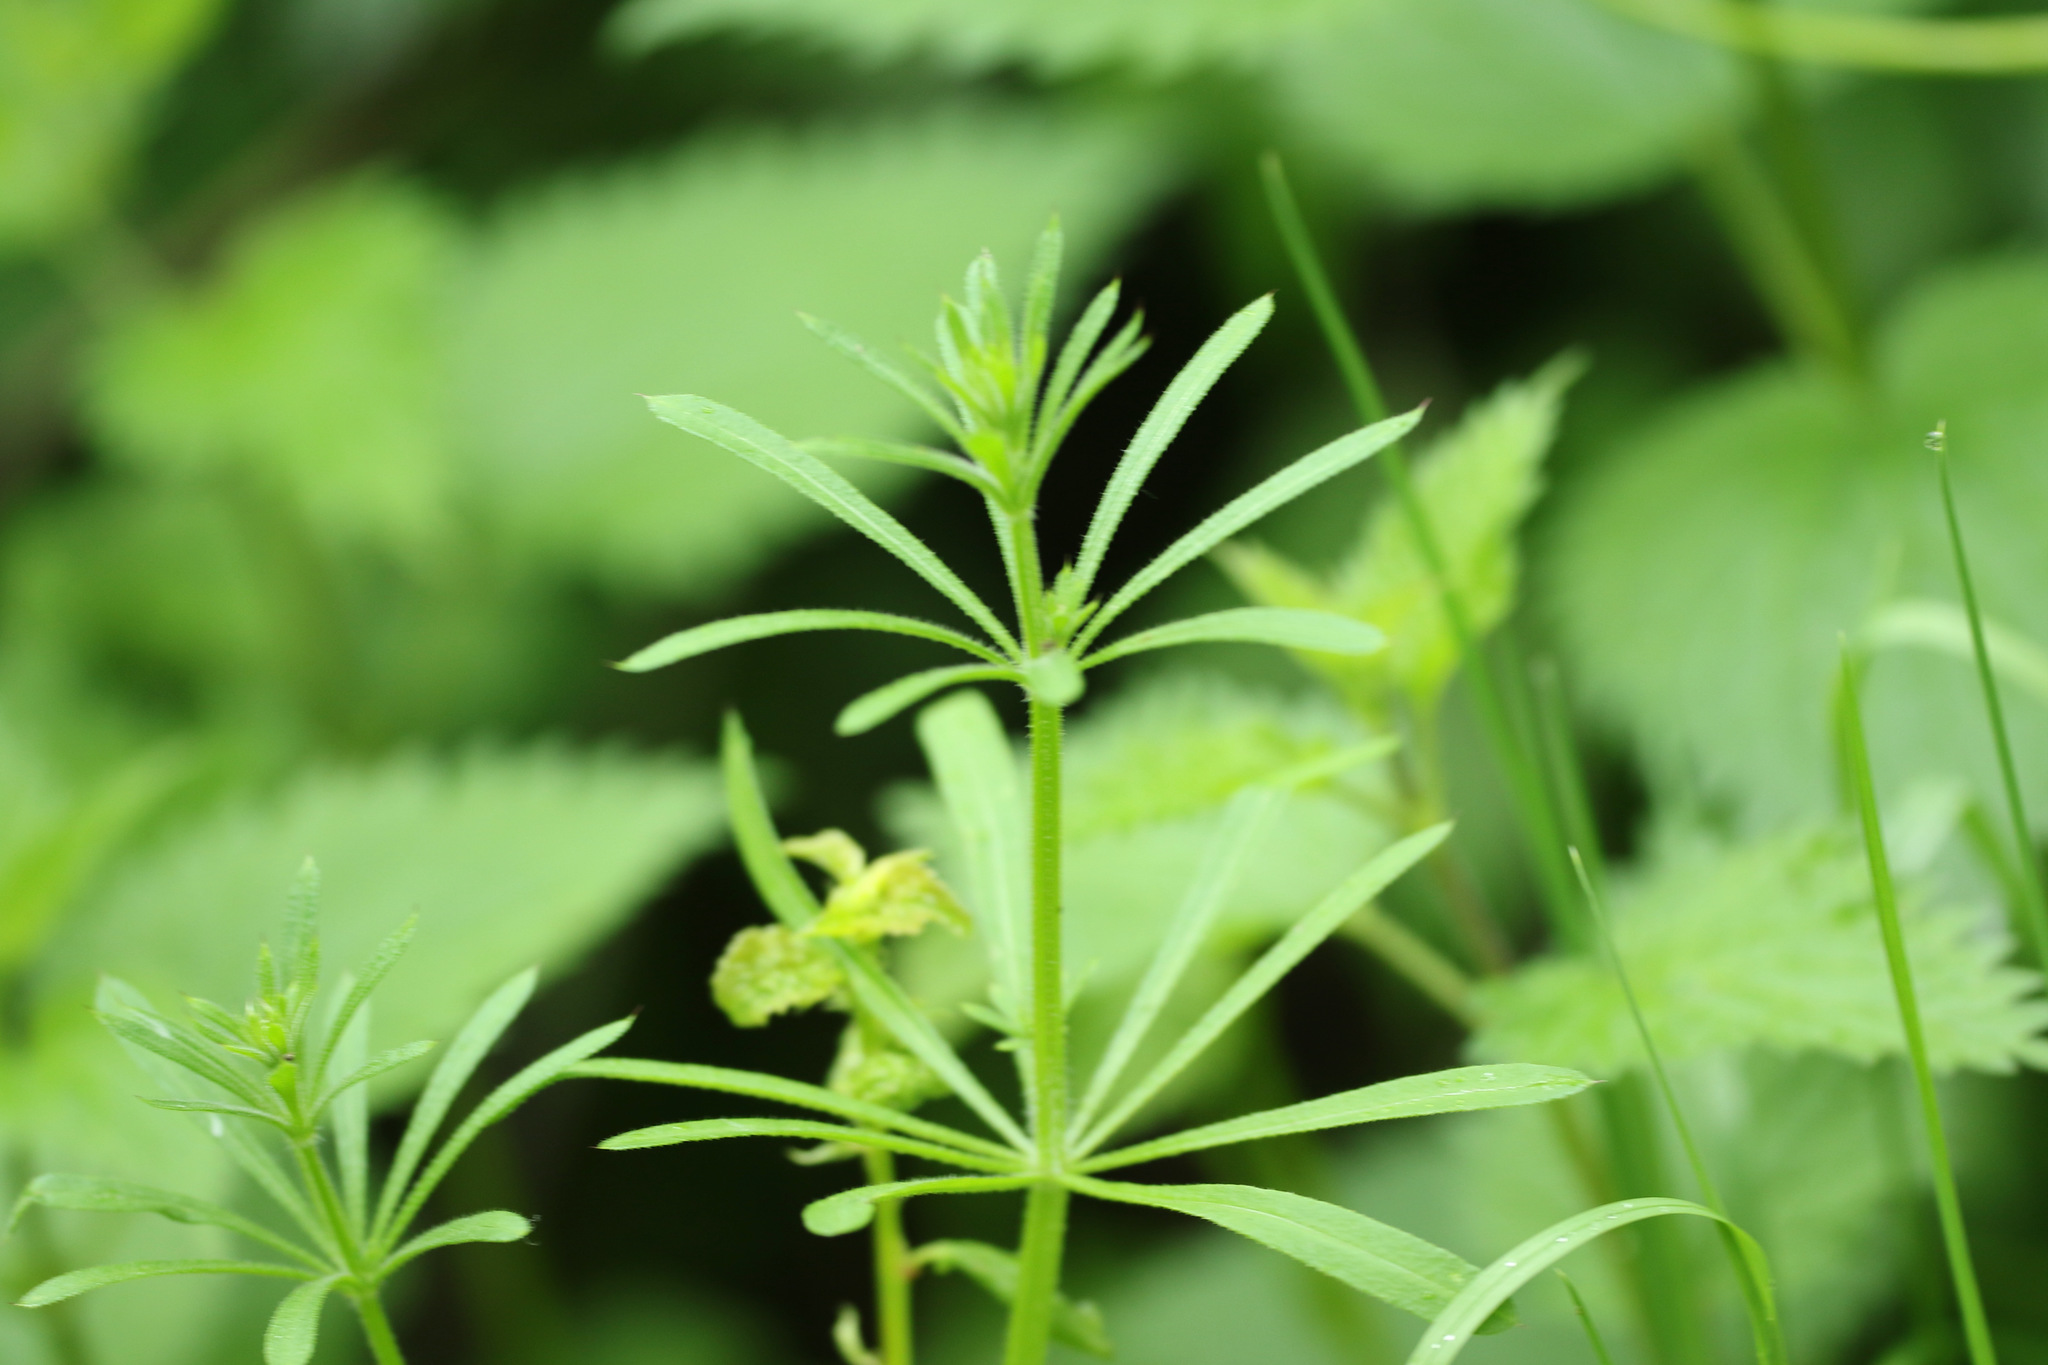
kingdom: Plantae
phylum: Tracheophyta
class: Magnoliopsida
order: Gentianales
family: Rubiaceae
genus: Galium
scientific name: Galium aparine
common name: Cleavers
